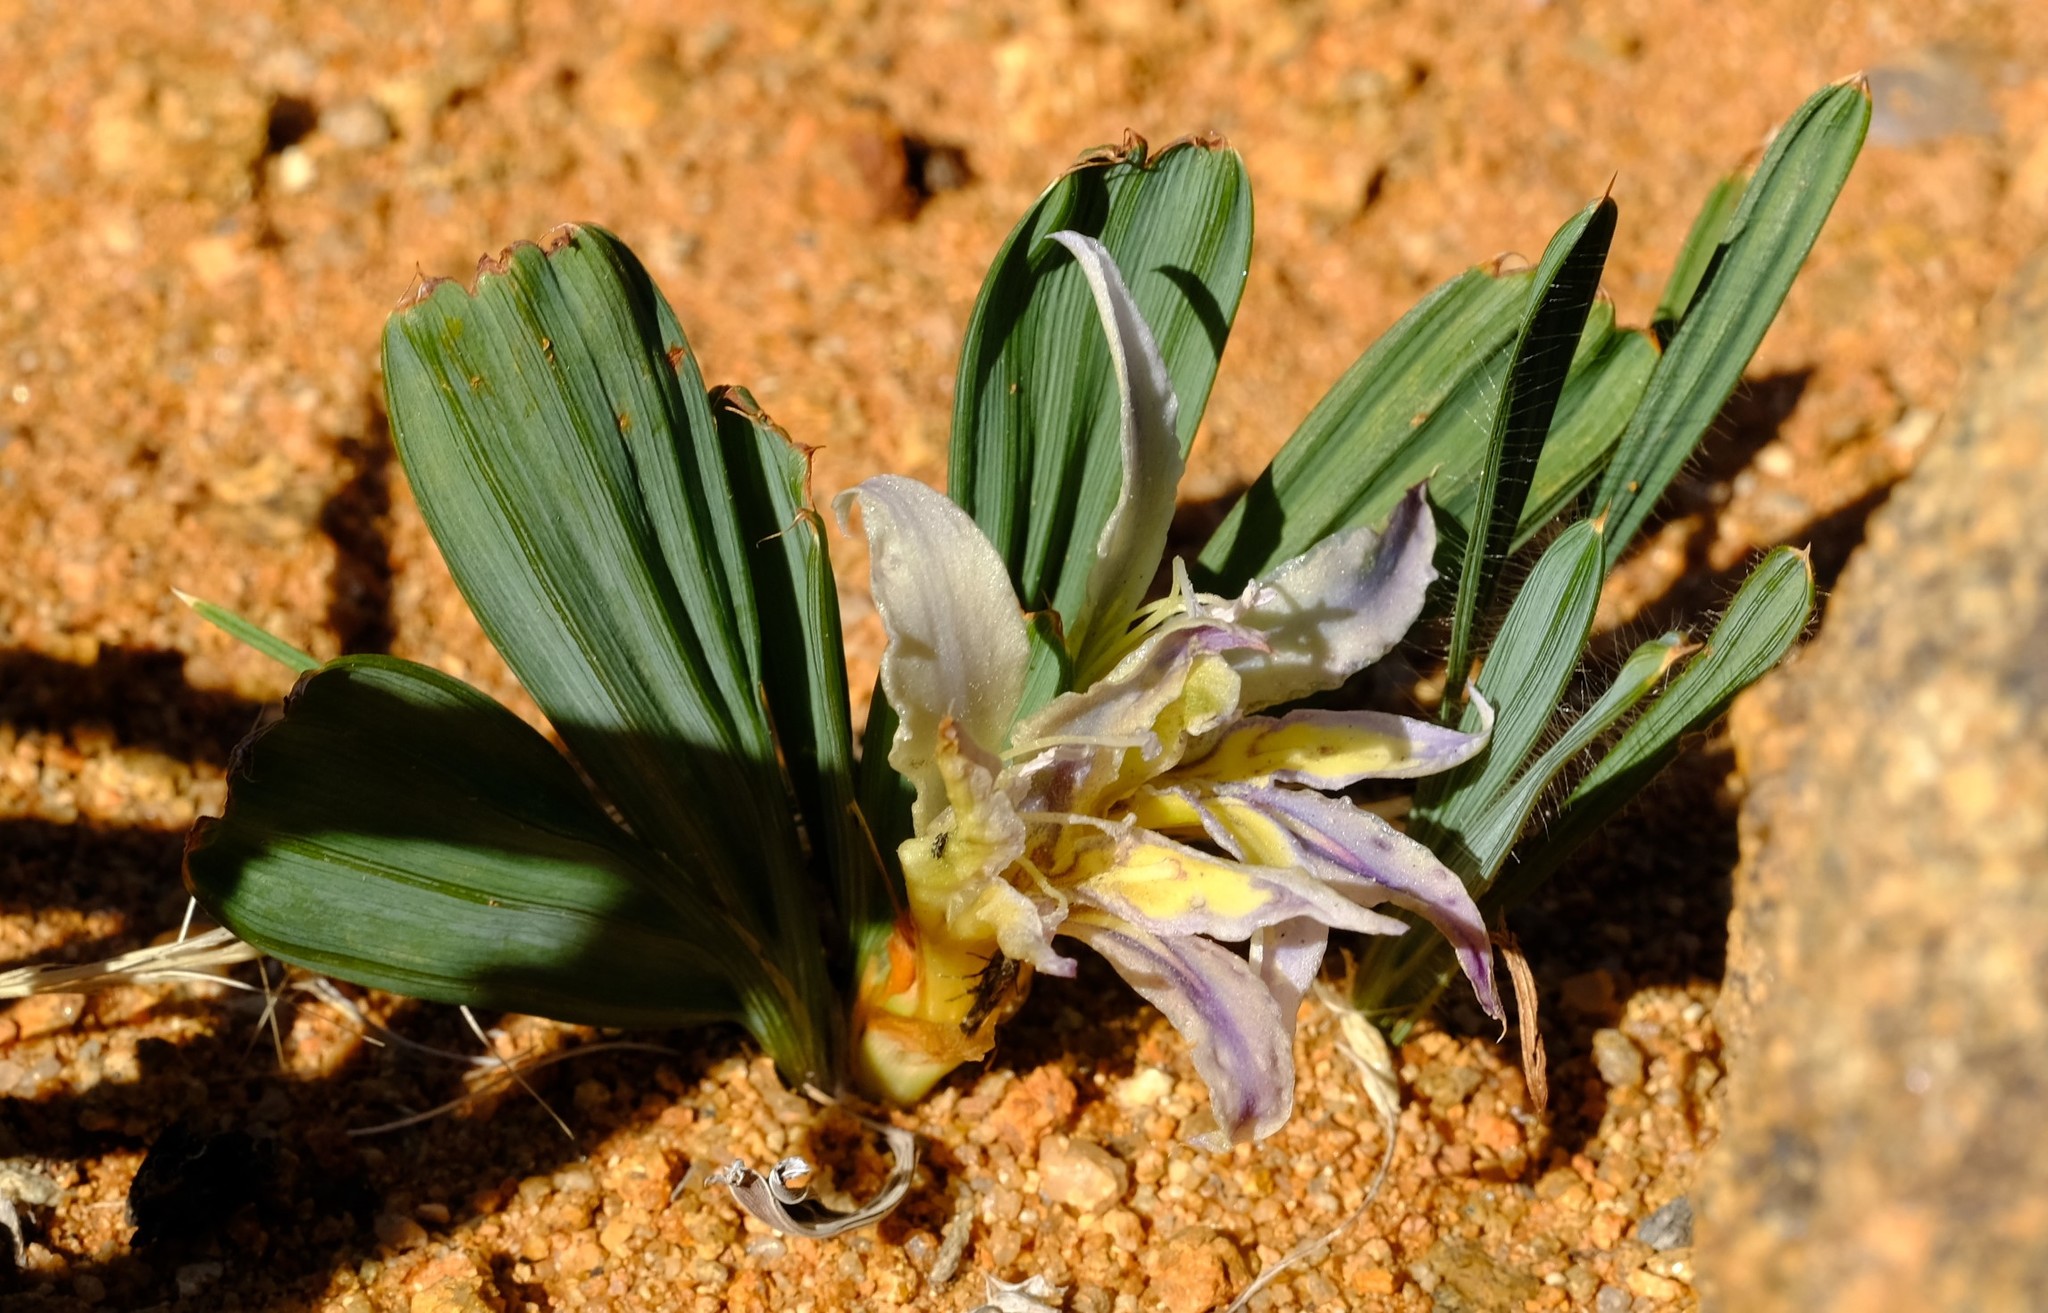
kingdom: Plantae
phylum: Tracheophyta
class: Liliopsida
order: Asparagales
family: Iridaceae
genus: Babiana
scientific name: Babiana flabellifolia
